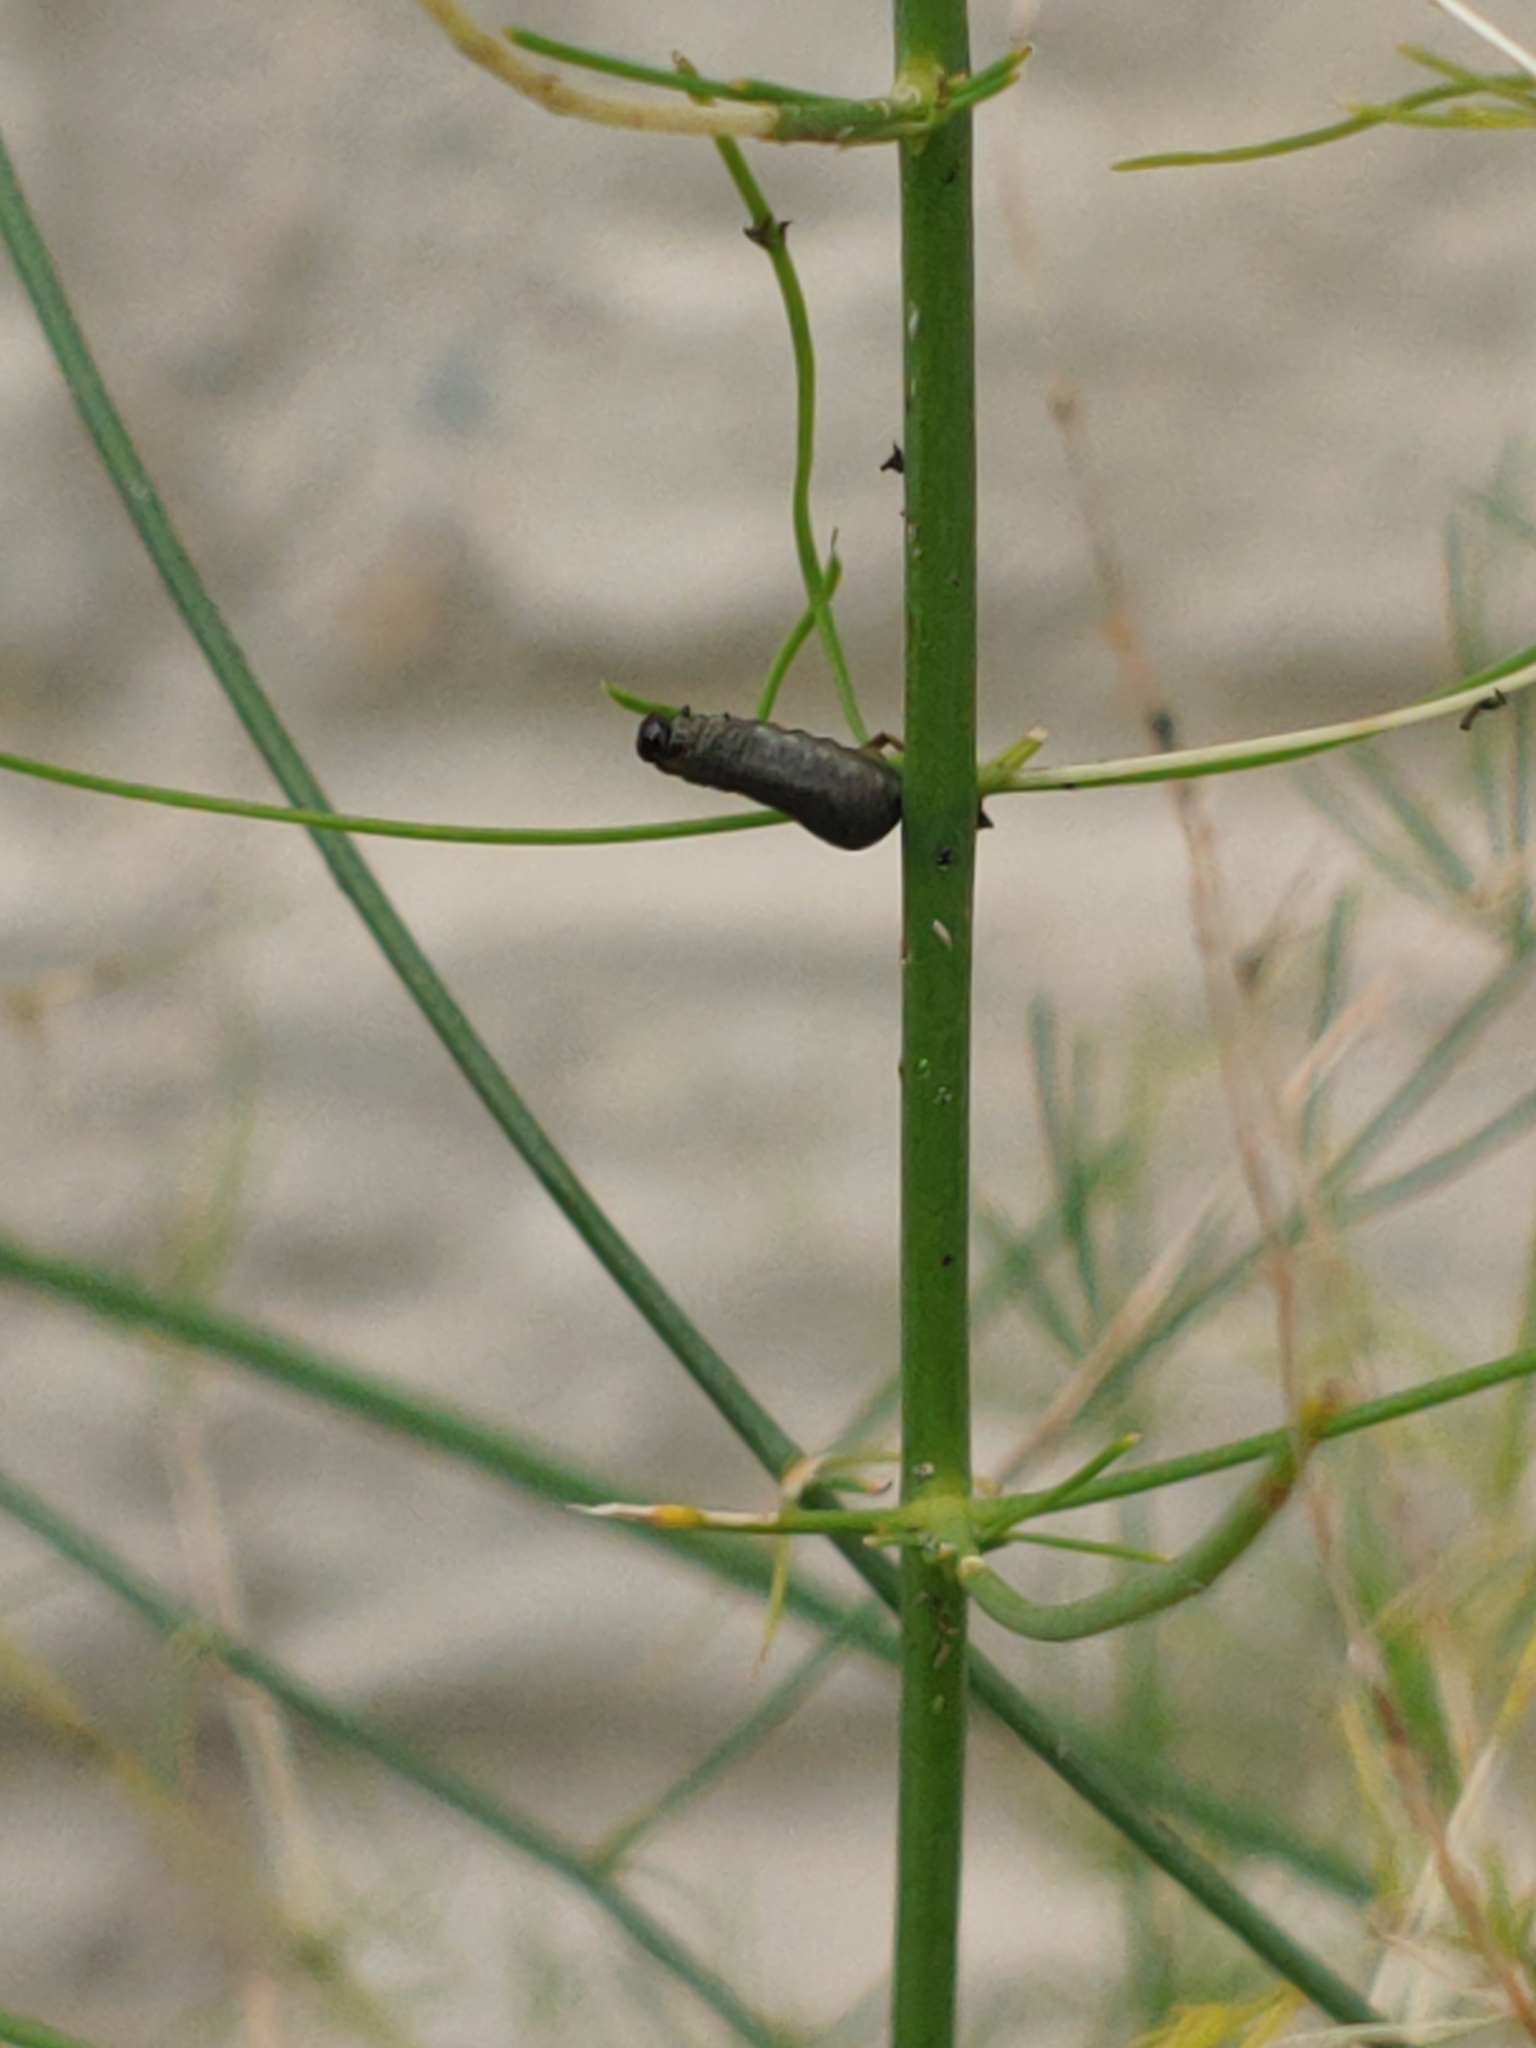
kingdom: Animalia
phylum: Arthropoda
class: Insecta
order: Coleoptera
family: Chrysomelidae
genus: Crioceris
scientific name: Crioceris asparagi
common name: Asparagus beetle
